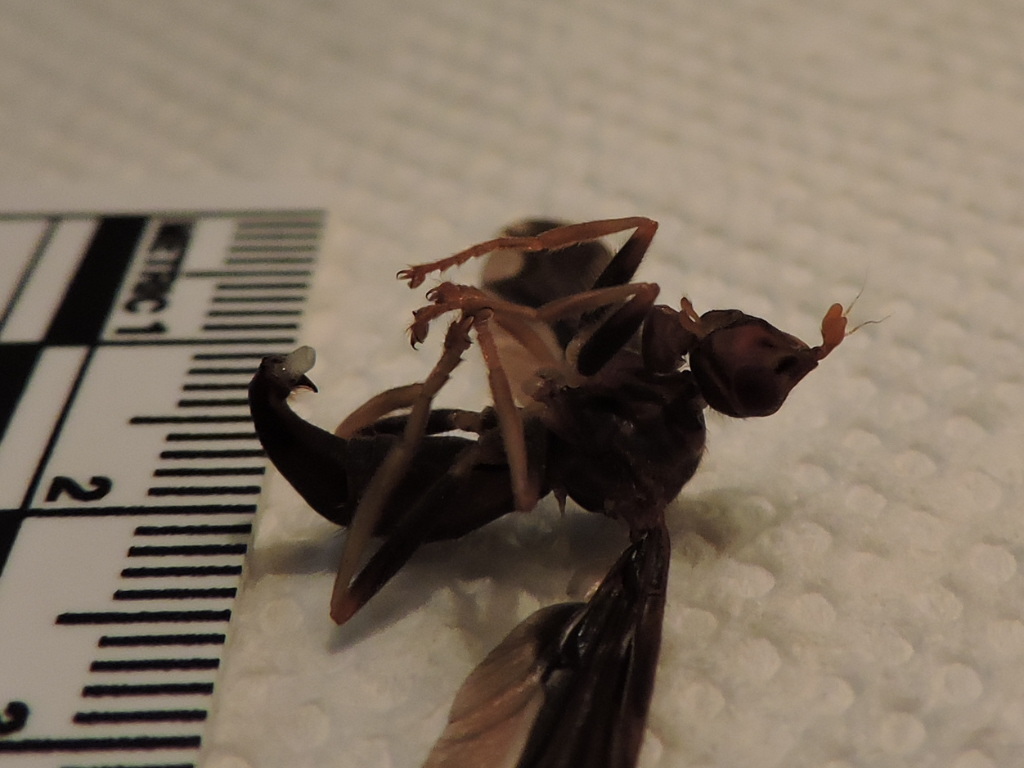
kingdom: Animalia
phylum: Arthropoda
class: Insecta
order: Diptera
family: Pyrgotidae
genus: Pyrgota
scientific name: Pyrgota undata
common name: Waved light fly
